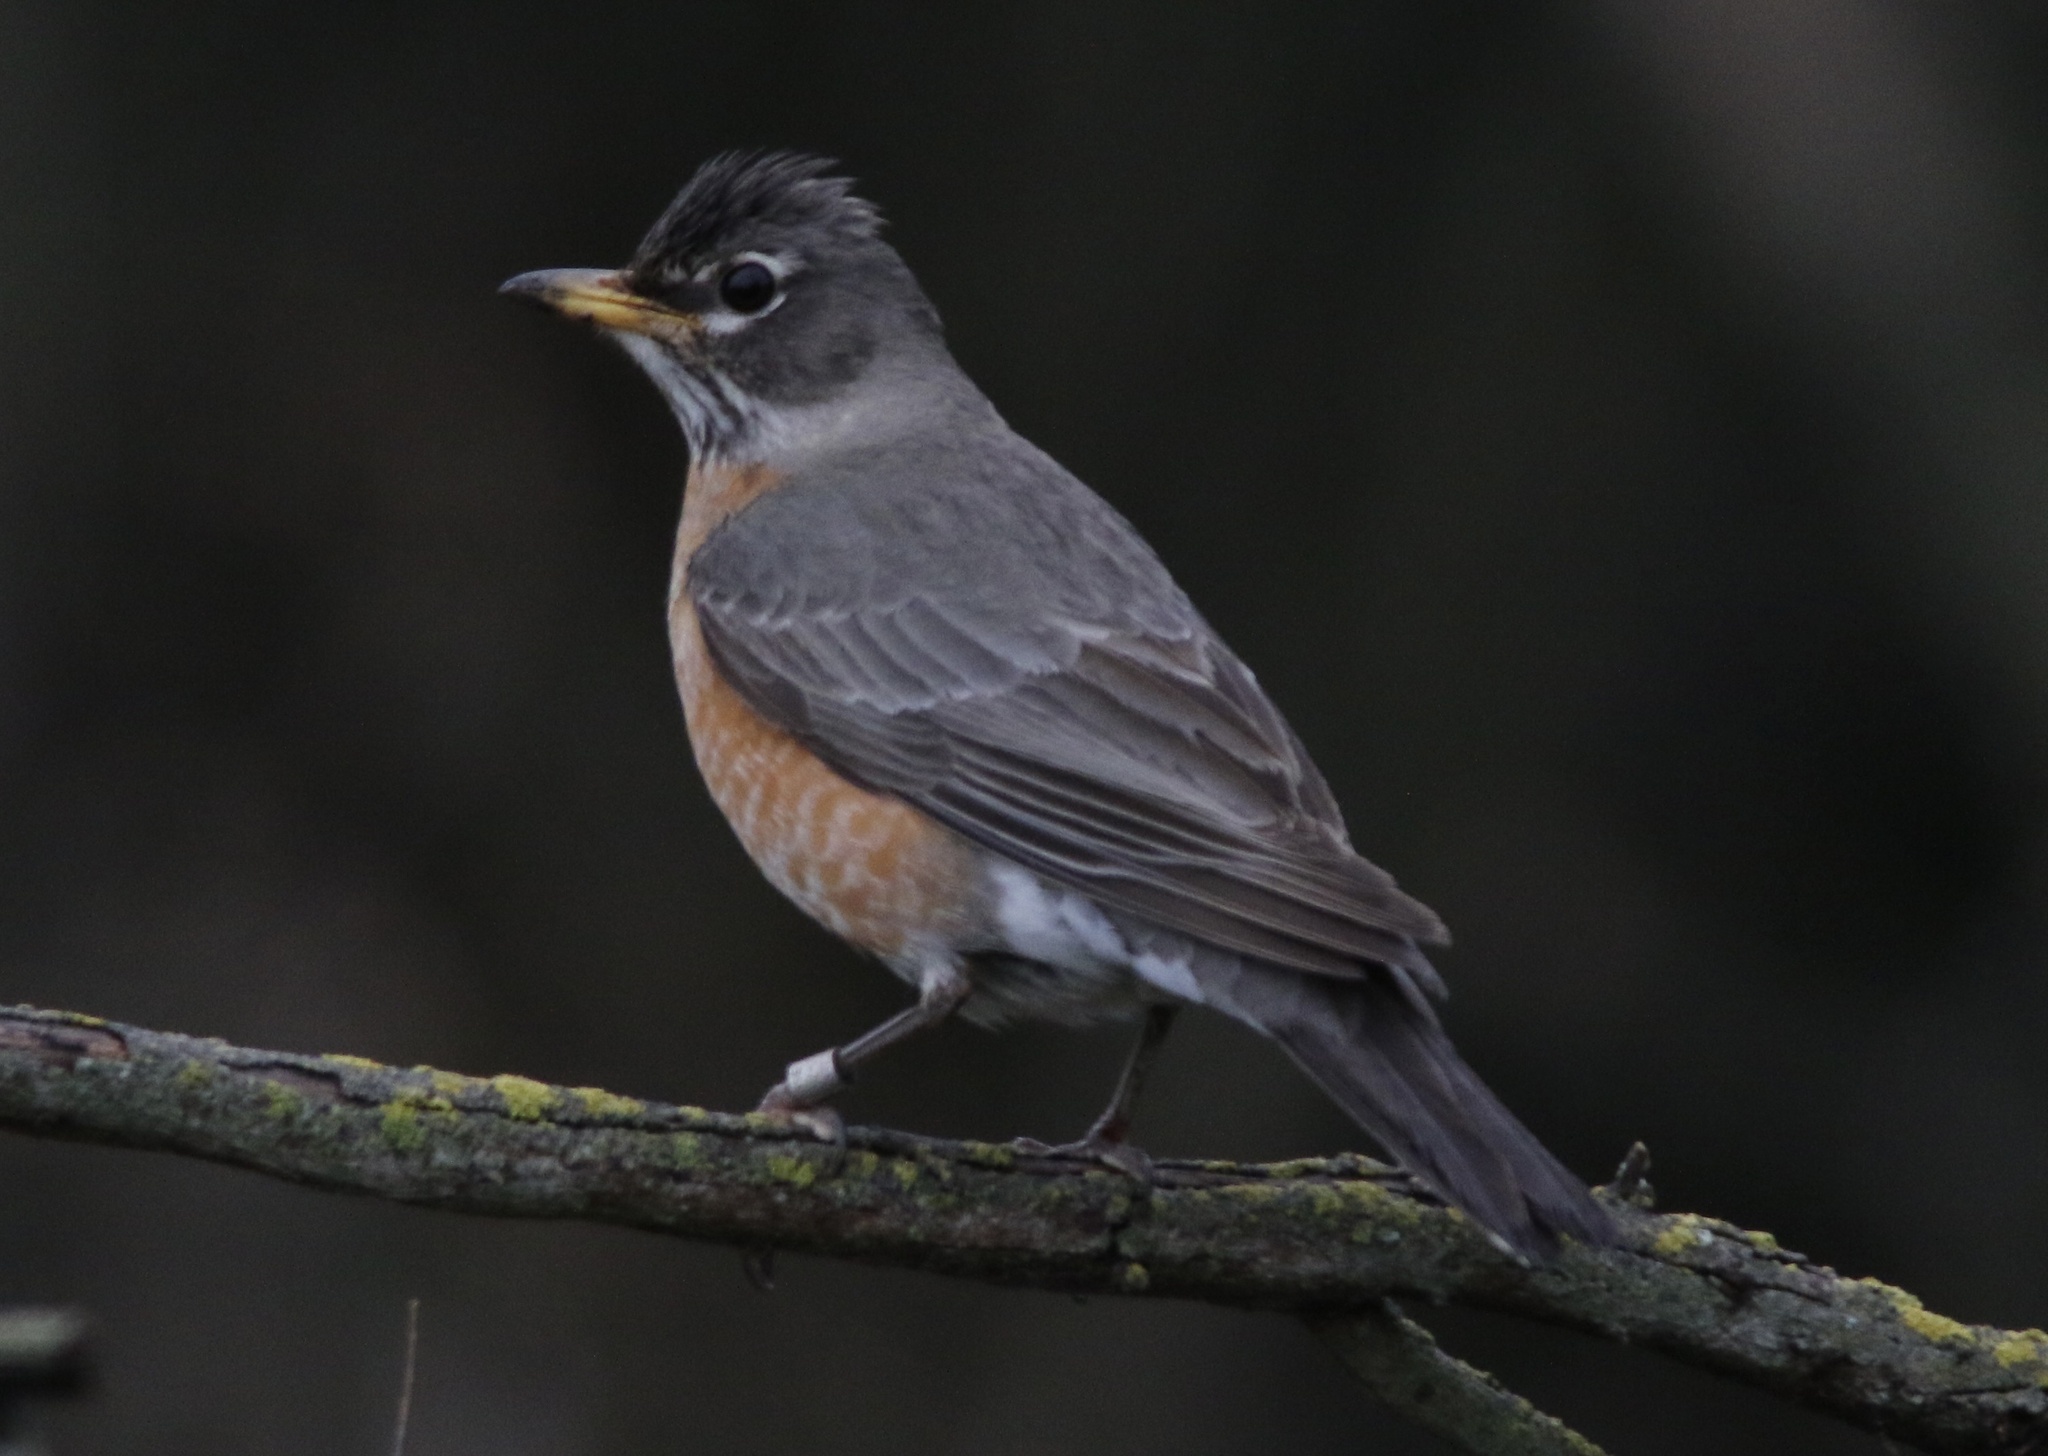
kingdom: Animalia
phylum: Chordata
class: Aves
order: Passeriformes
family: Turdidae
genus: Turdus
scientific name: Turdus migratorius
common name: American robin
